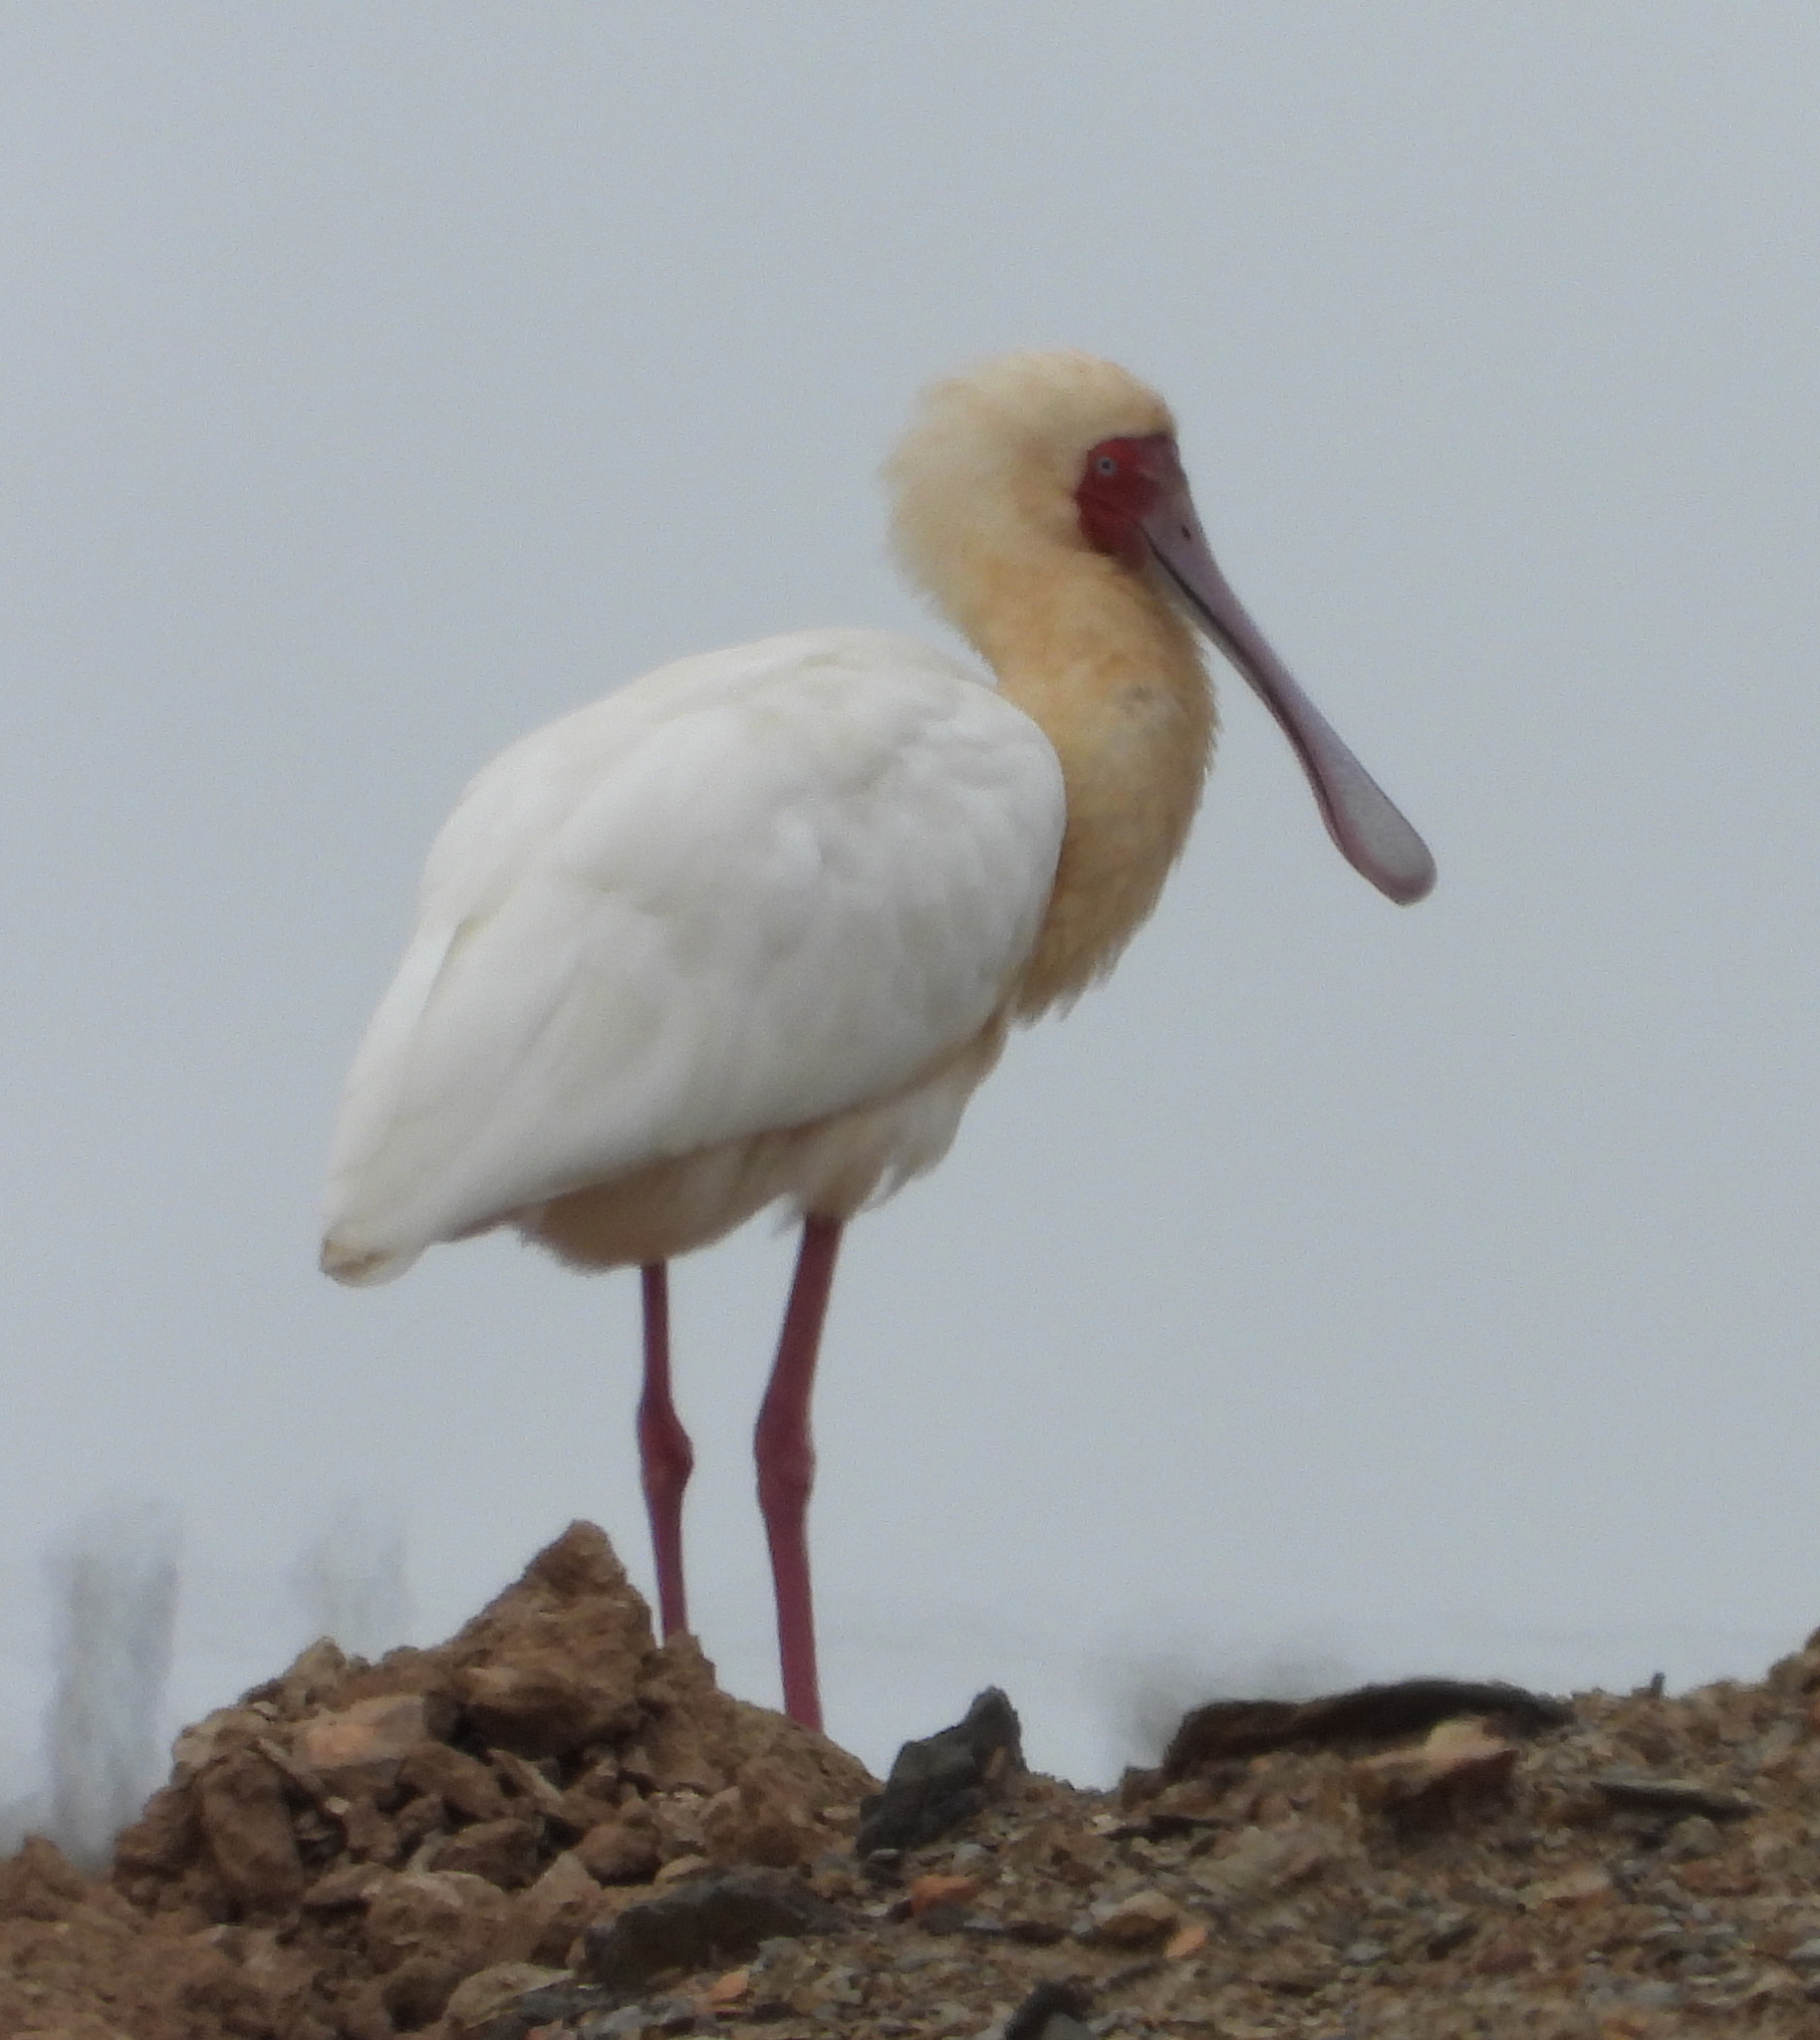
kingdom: Animalia
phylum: Chordata
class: Aves
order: Pelecaniformes
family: Threskiornithidae
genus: Platalea
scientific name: Platalea alba
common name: African spoonbill
